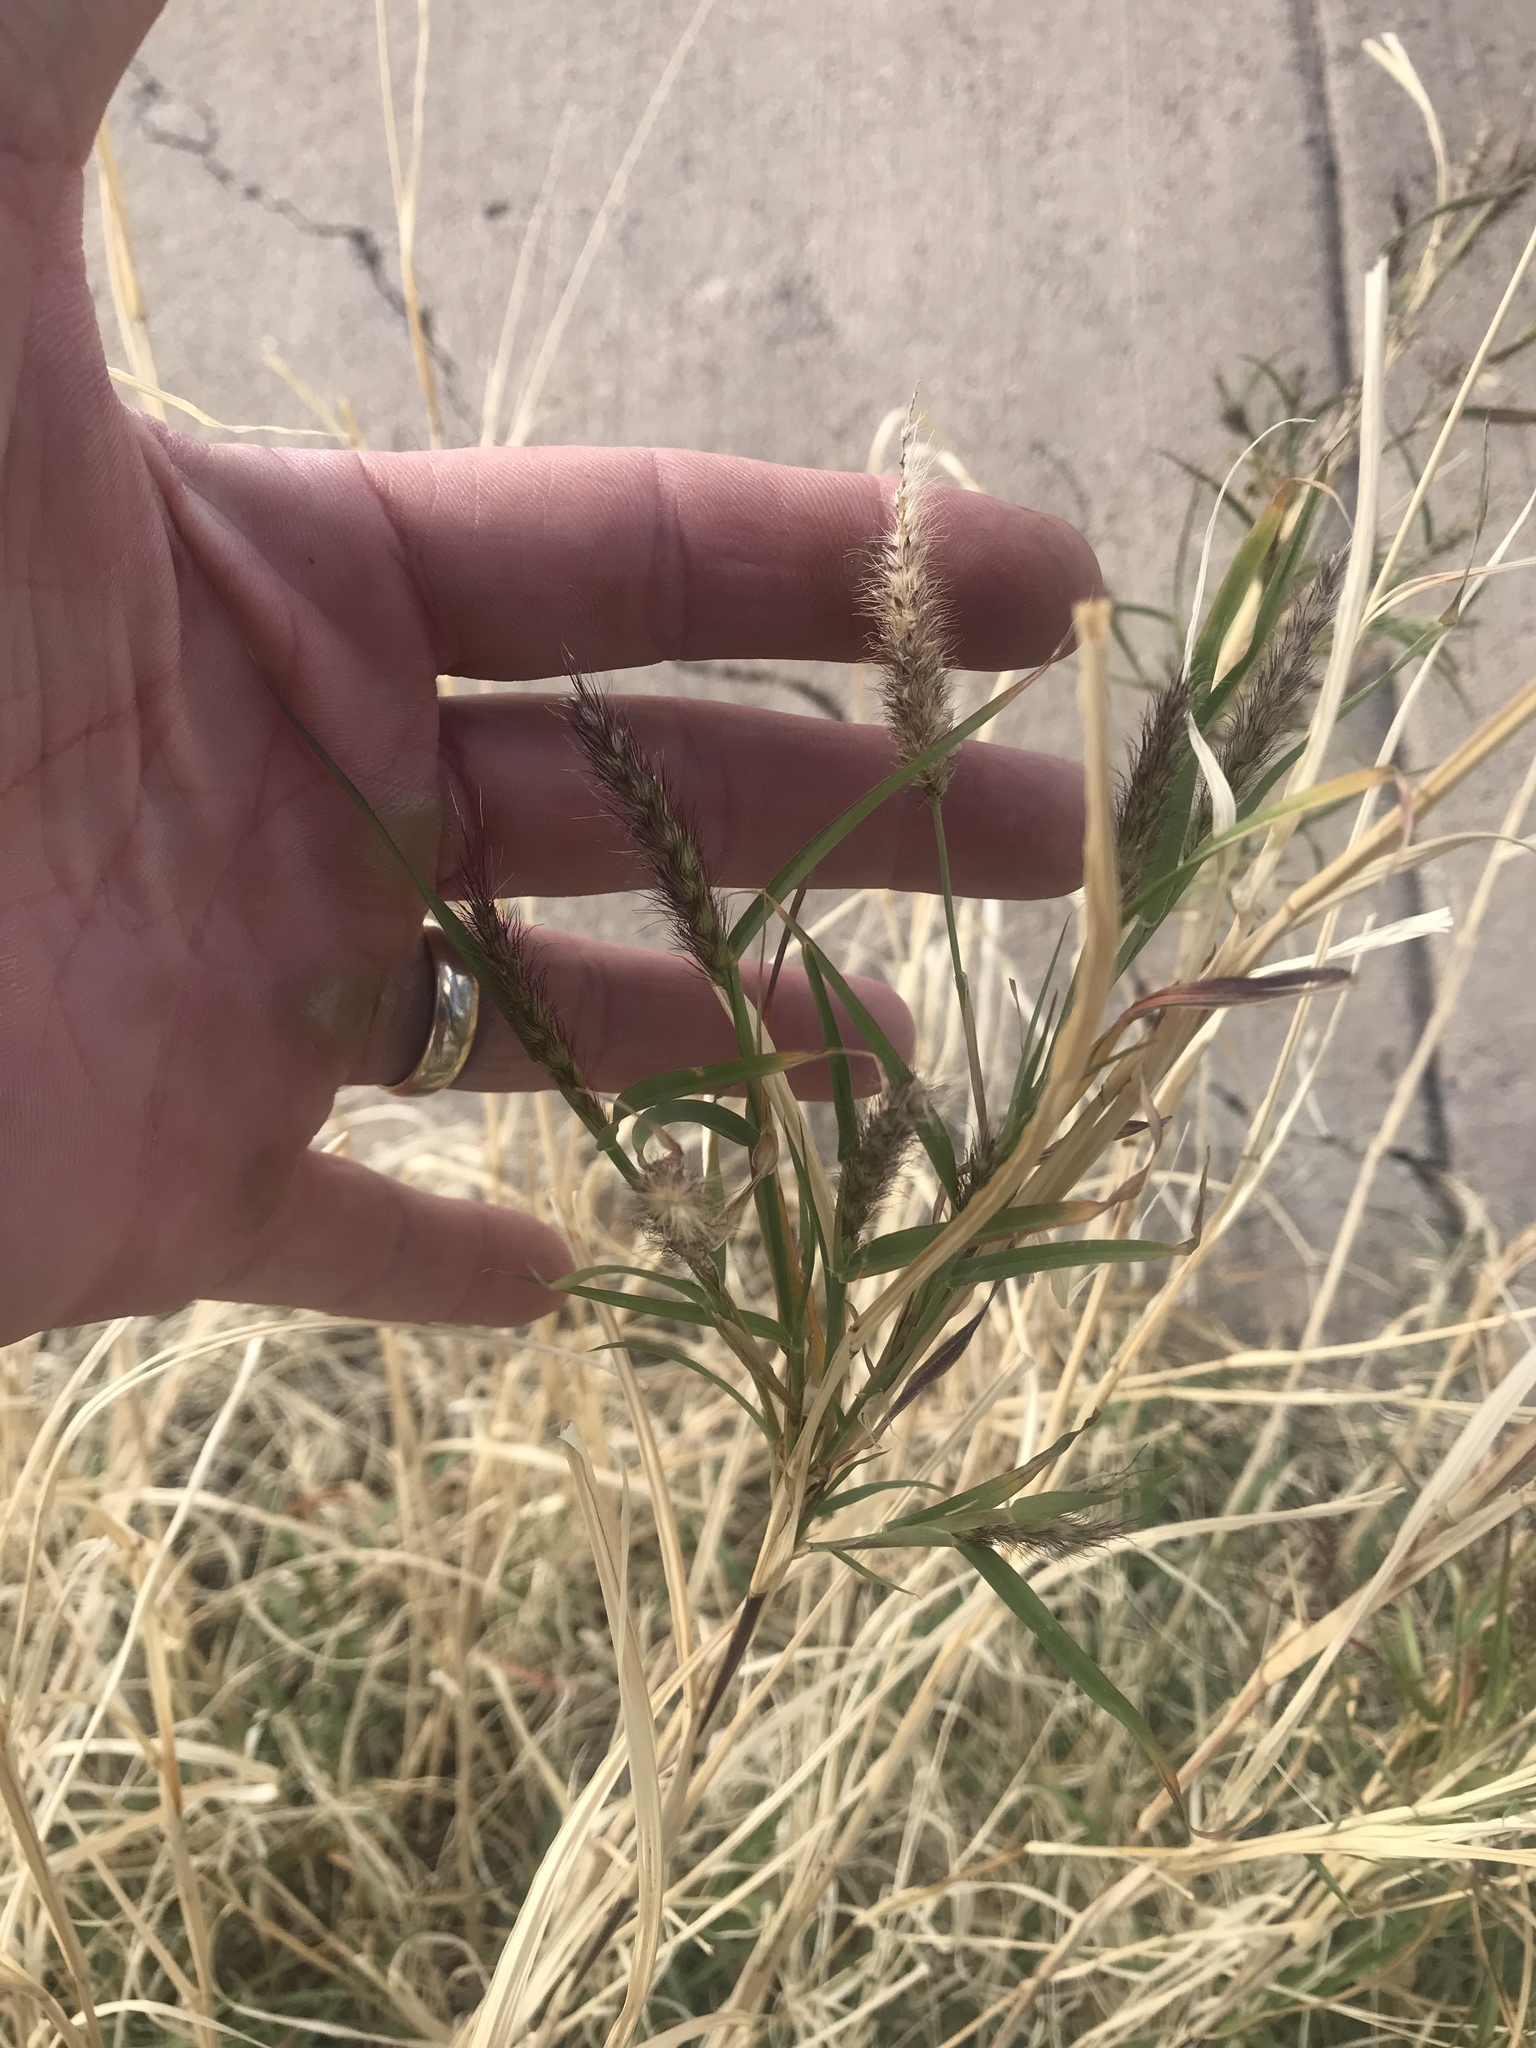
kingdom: Plantae
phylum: Tracheophyta
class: Liliopsida
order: Poales
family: Poaceae
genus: Cenchrus
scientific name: Cenchrus ciliaris
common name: Buffelgrass
